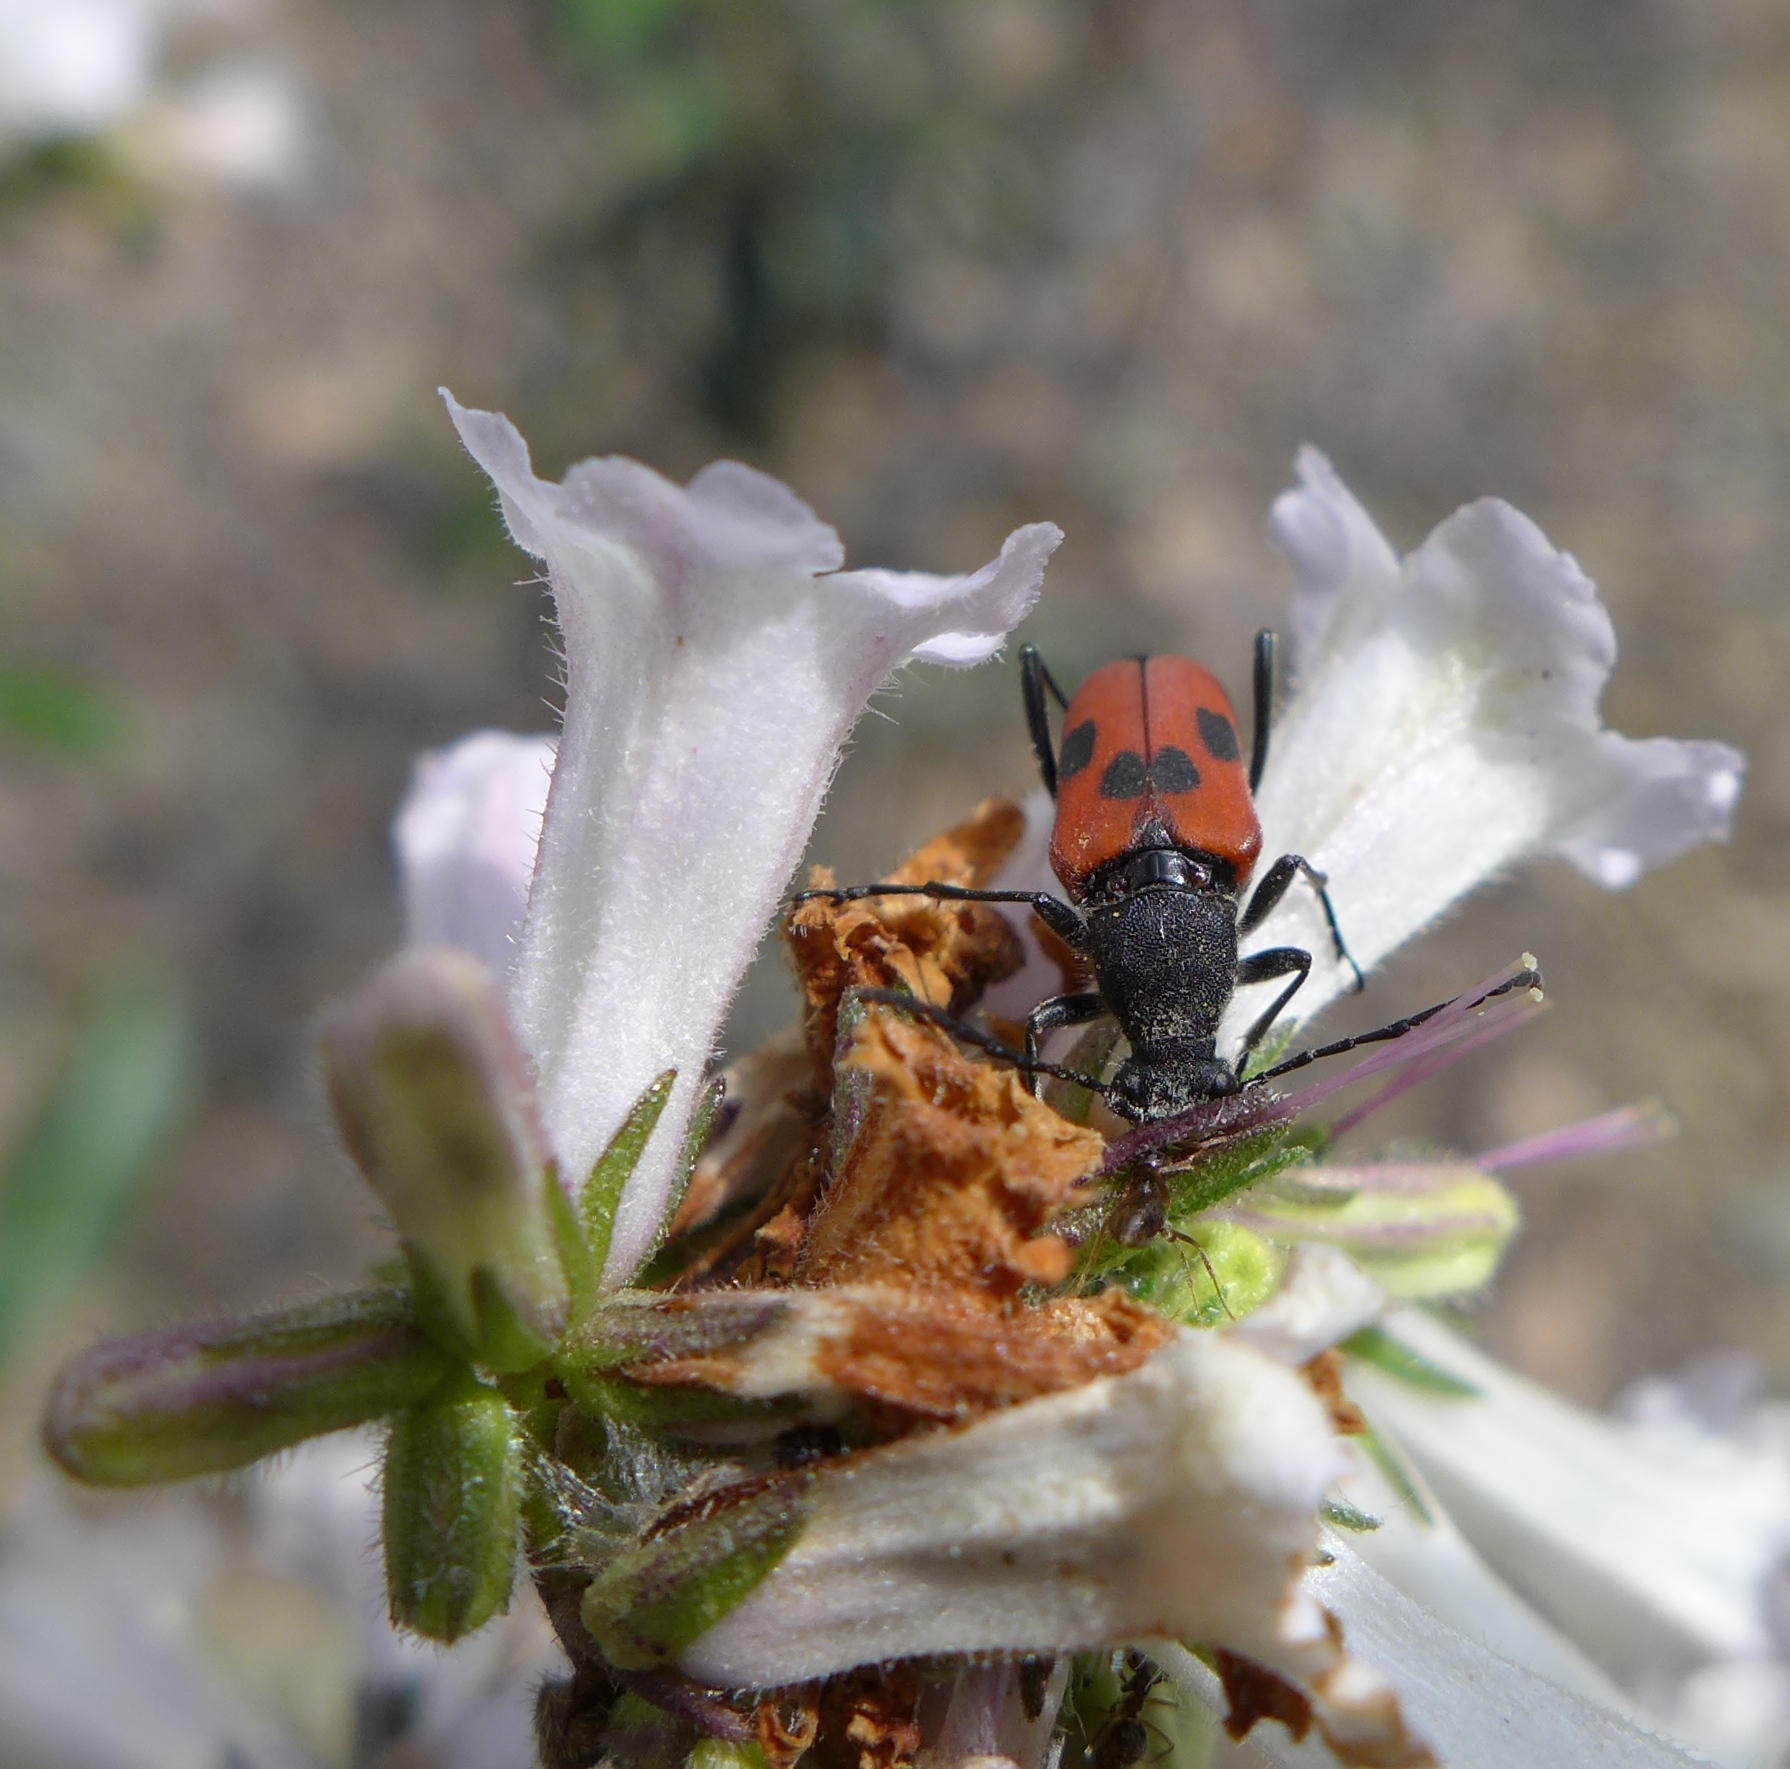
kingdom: Animalia
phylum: Arthropoda
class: Insecta
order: Coleoptera
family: Cerambycidae
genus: Anastrangalia
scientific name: Anastrangalia laetifica
